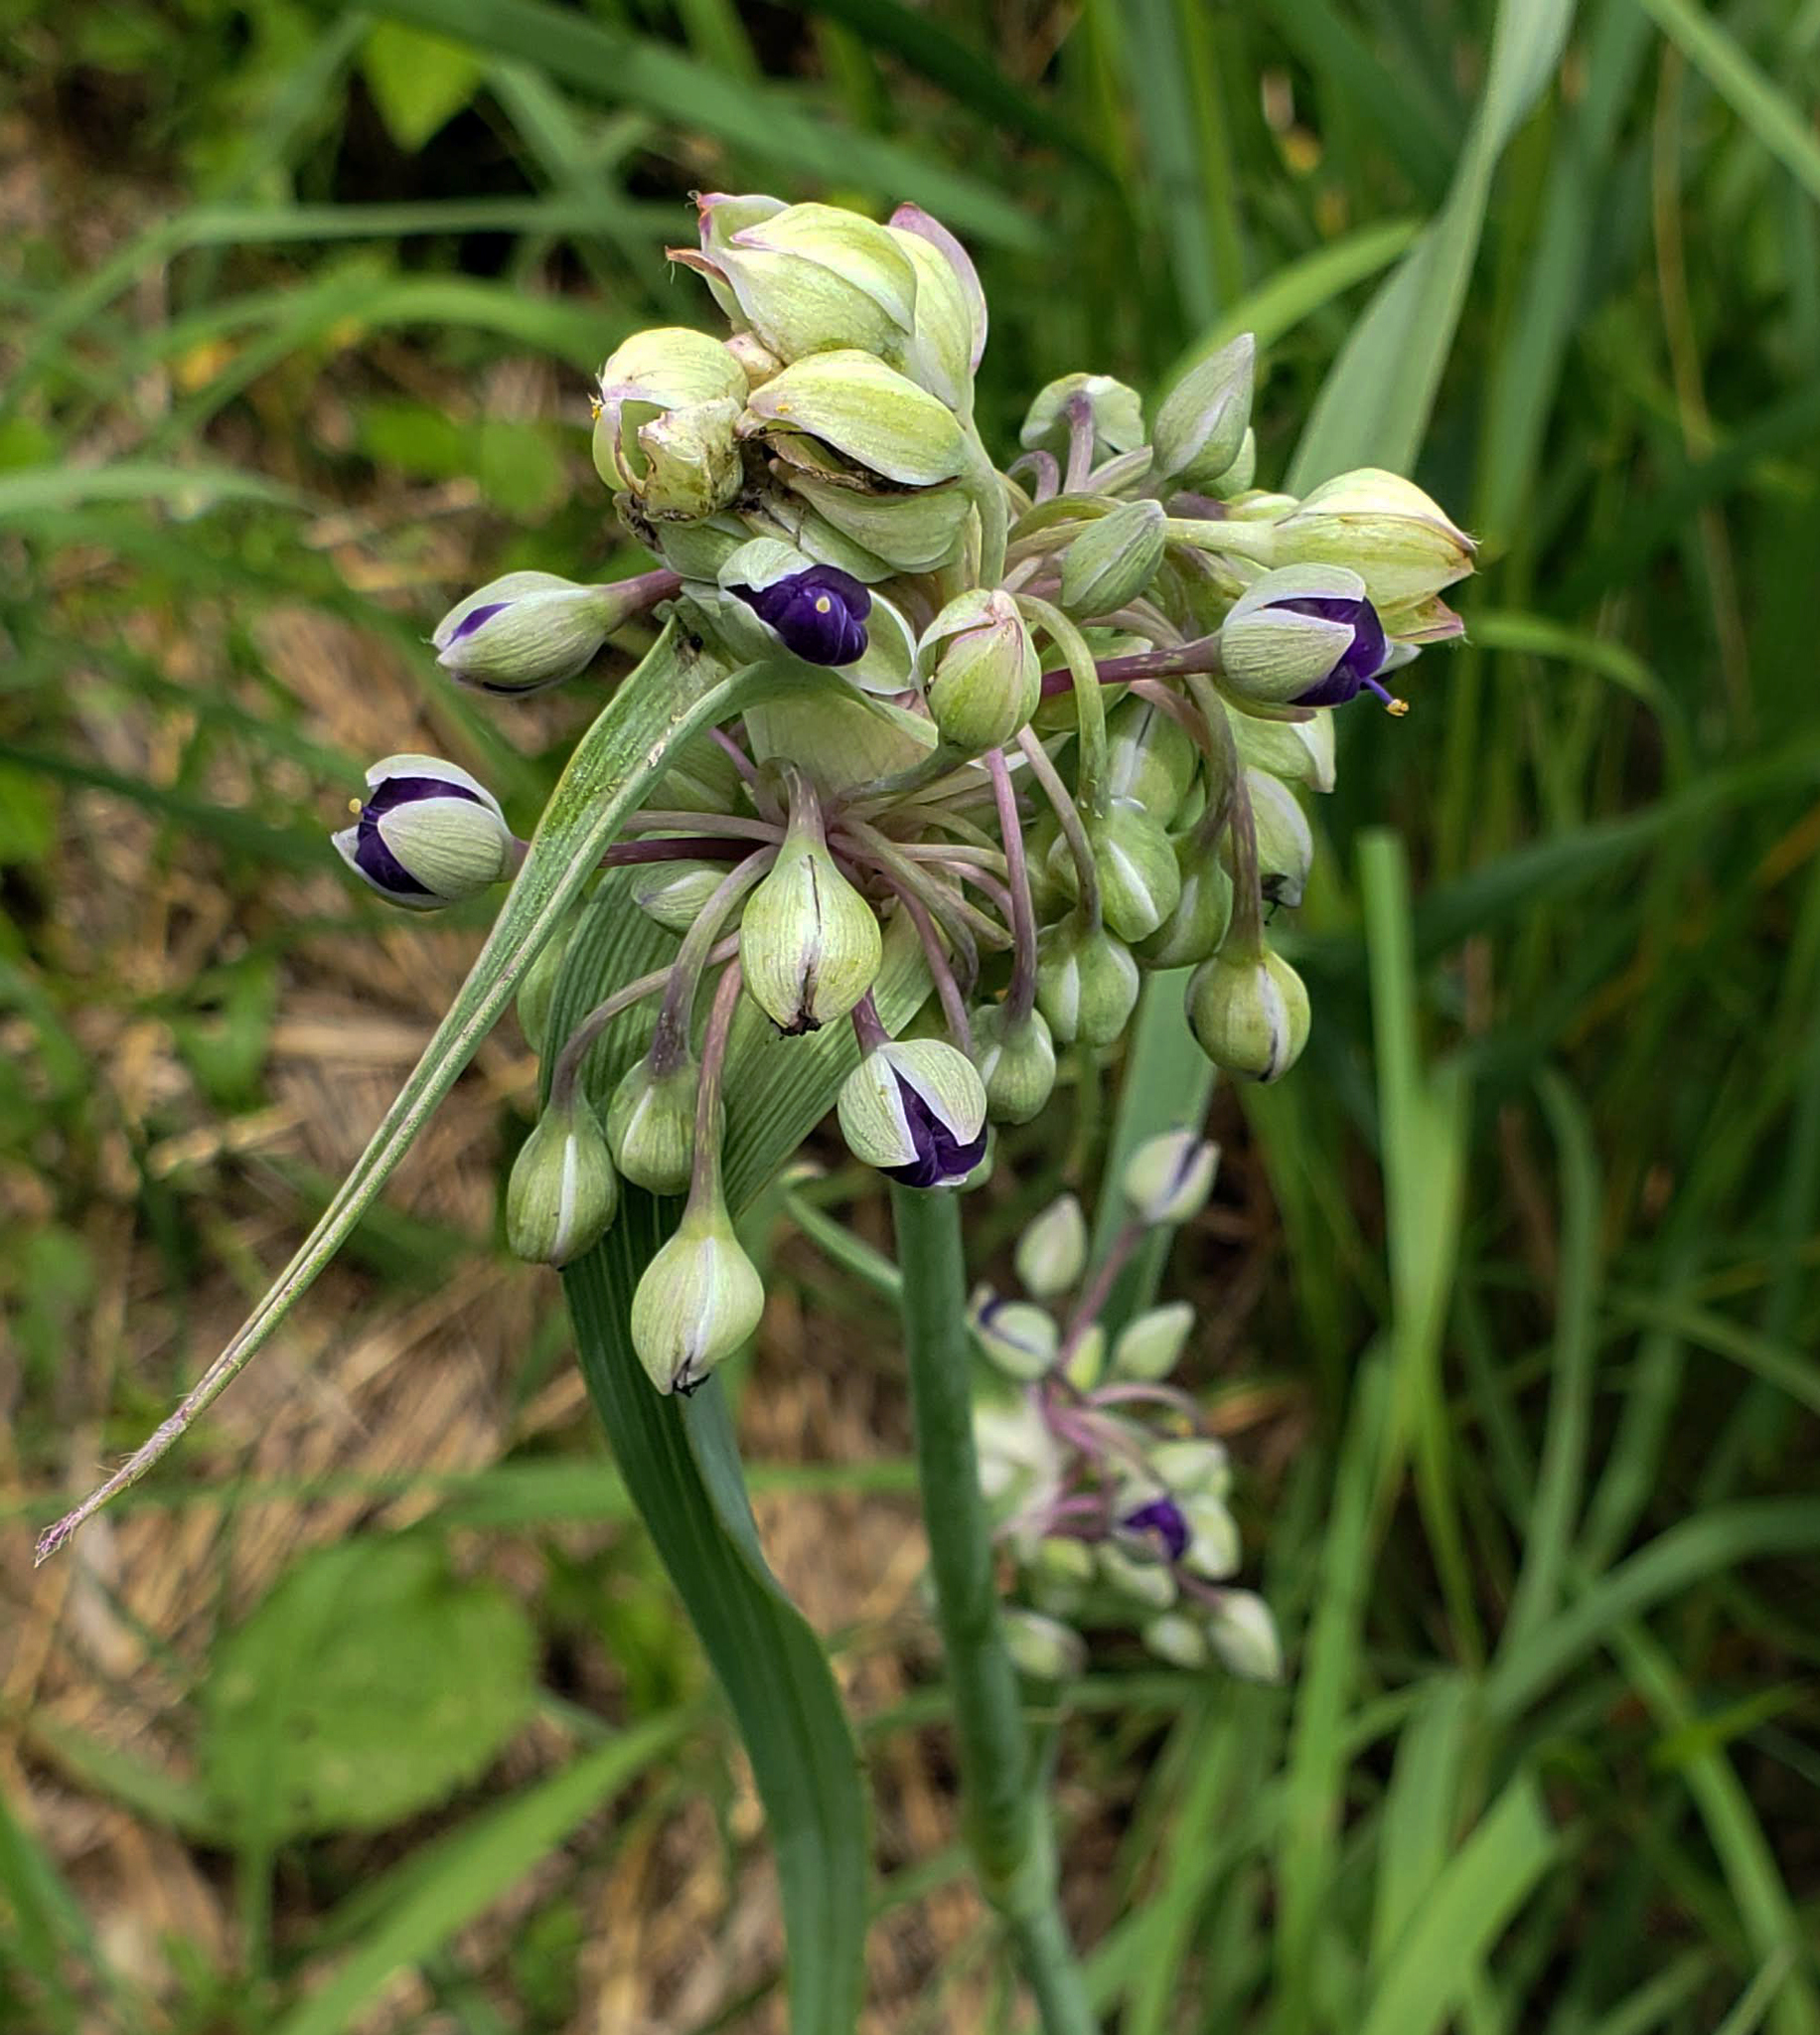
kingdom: Plantae
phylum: Tracheophyta
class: Liliopsida
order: Commelinales
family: Commelinaceae
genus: Tradescantia
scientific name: Tradescantia ohiensis
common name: Ohio spiderwort
